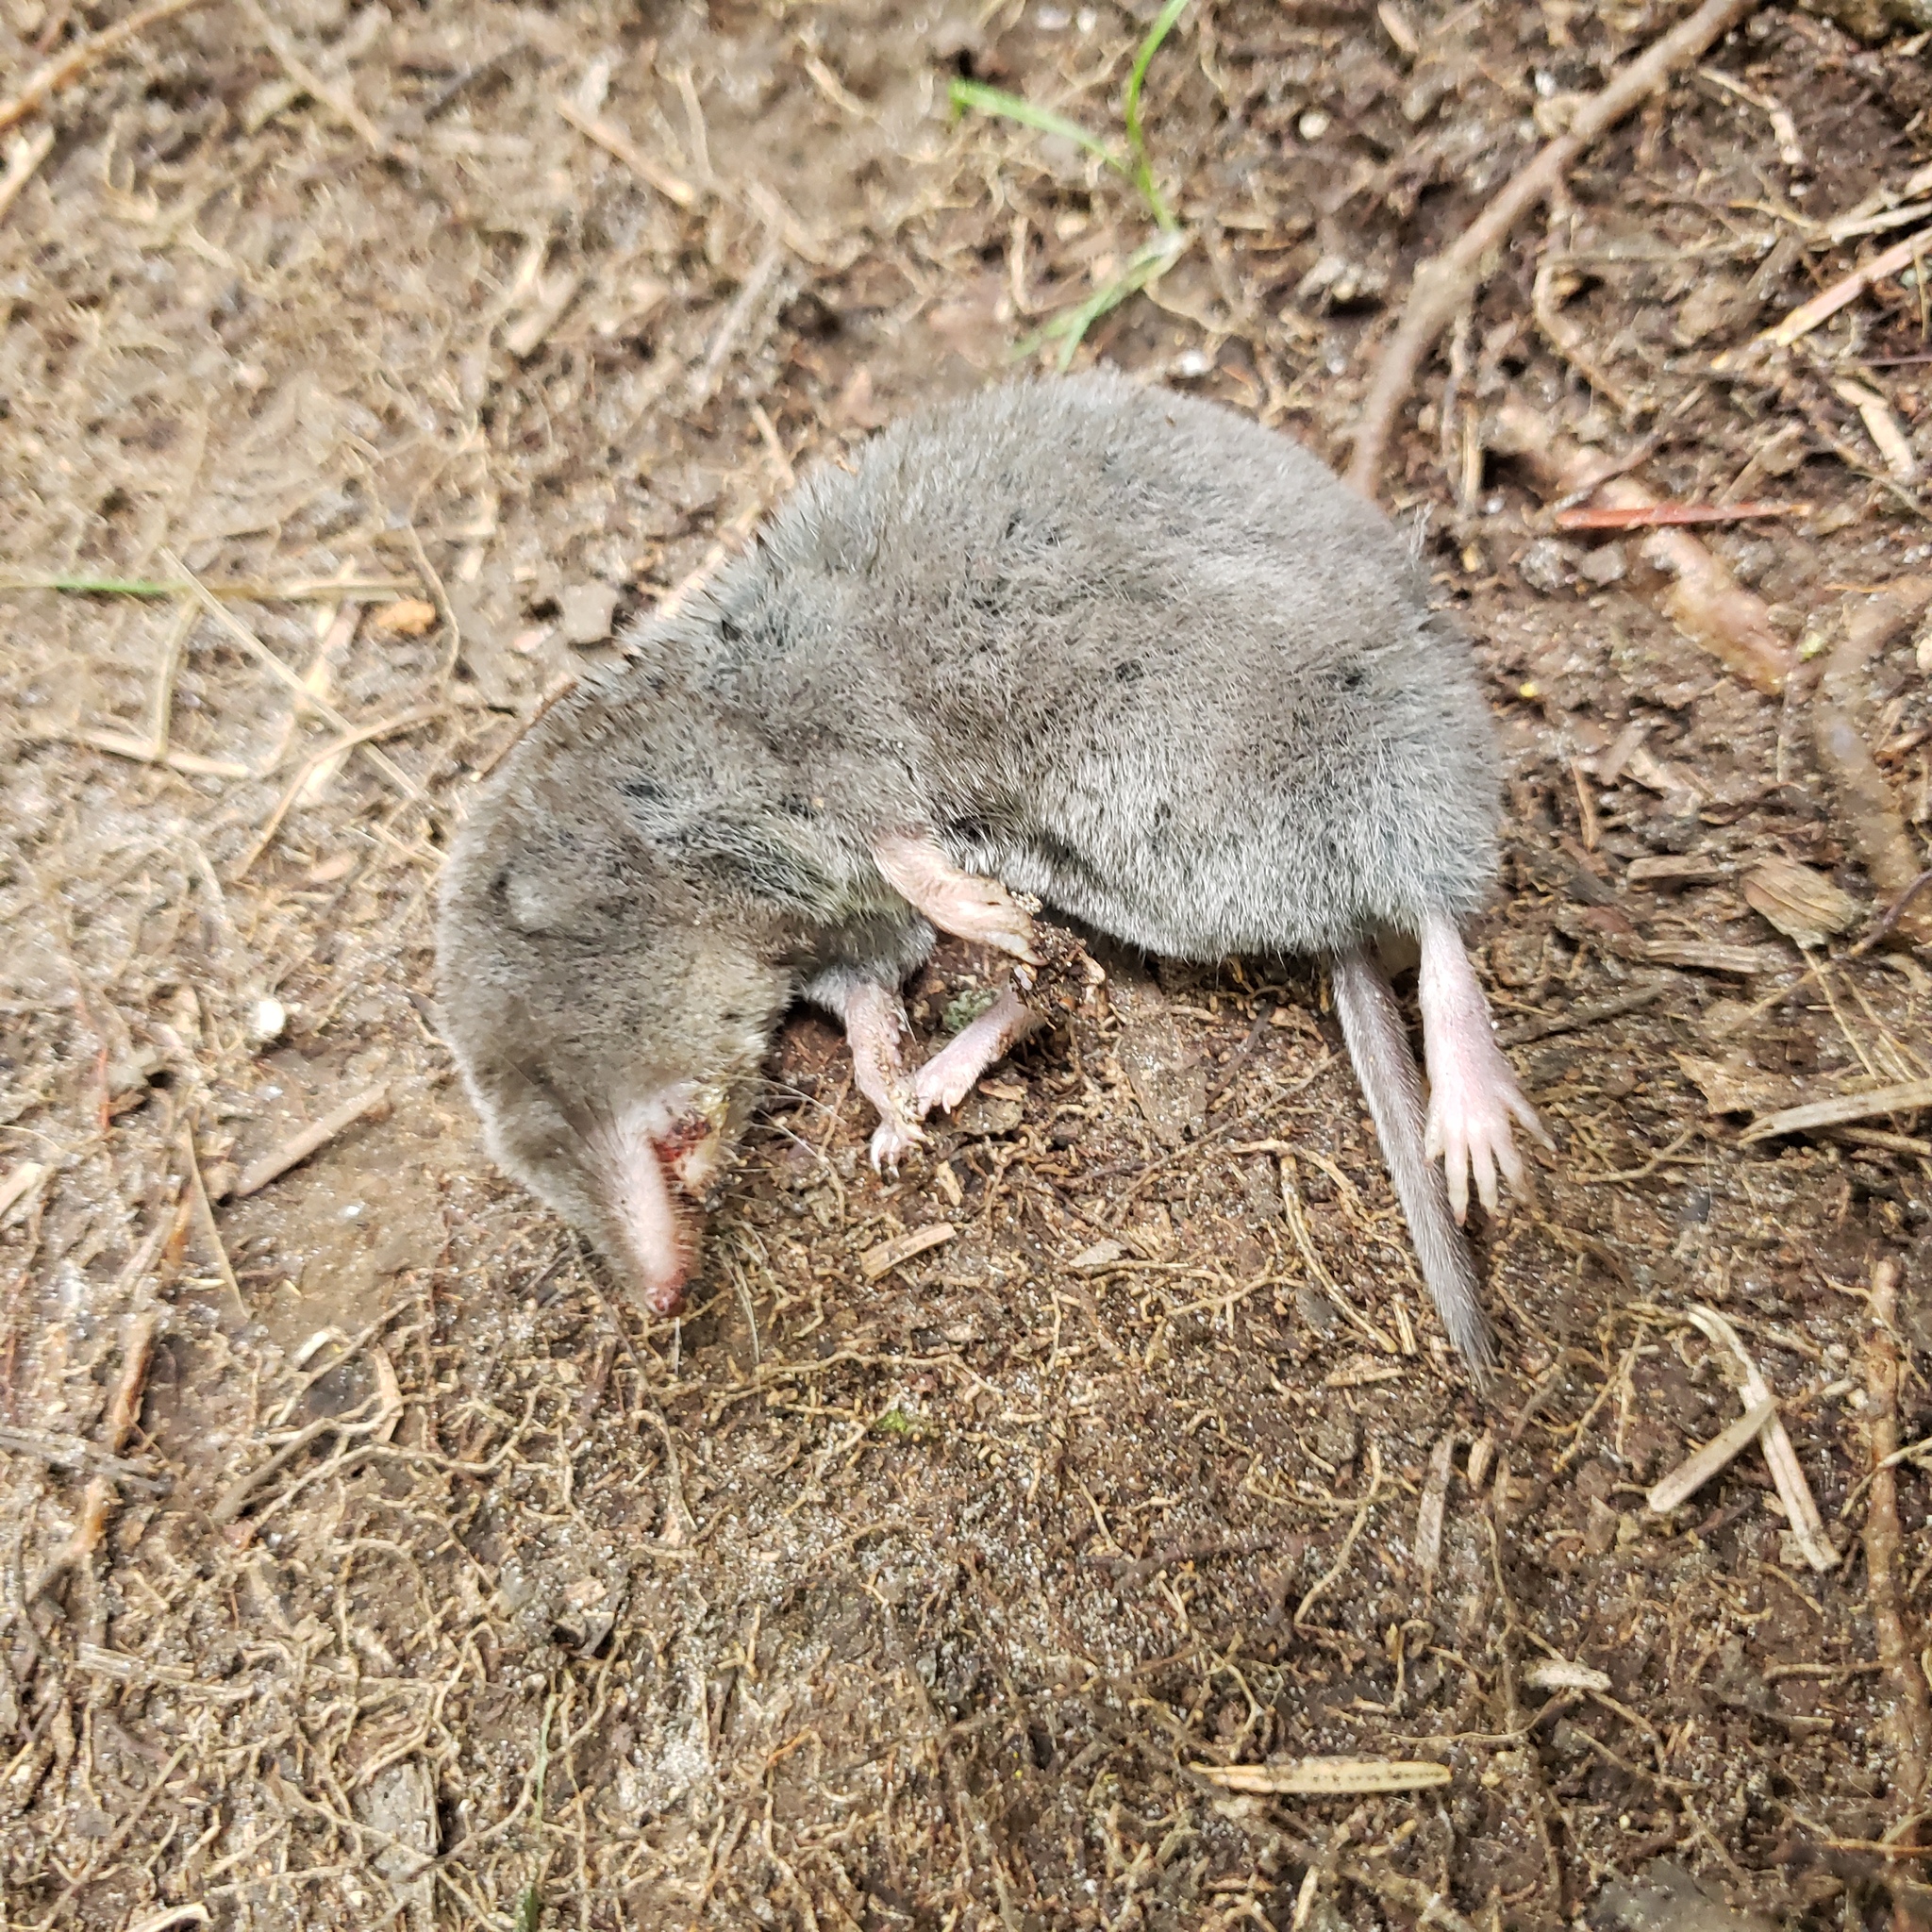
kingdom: Animalia
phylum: Chordata
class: Mammalia
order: Soricomorpha
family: Soricidae
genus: Blarina
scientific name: Blarina brevicauda
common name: Northern short-tailed shrew
